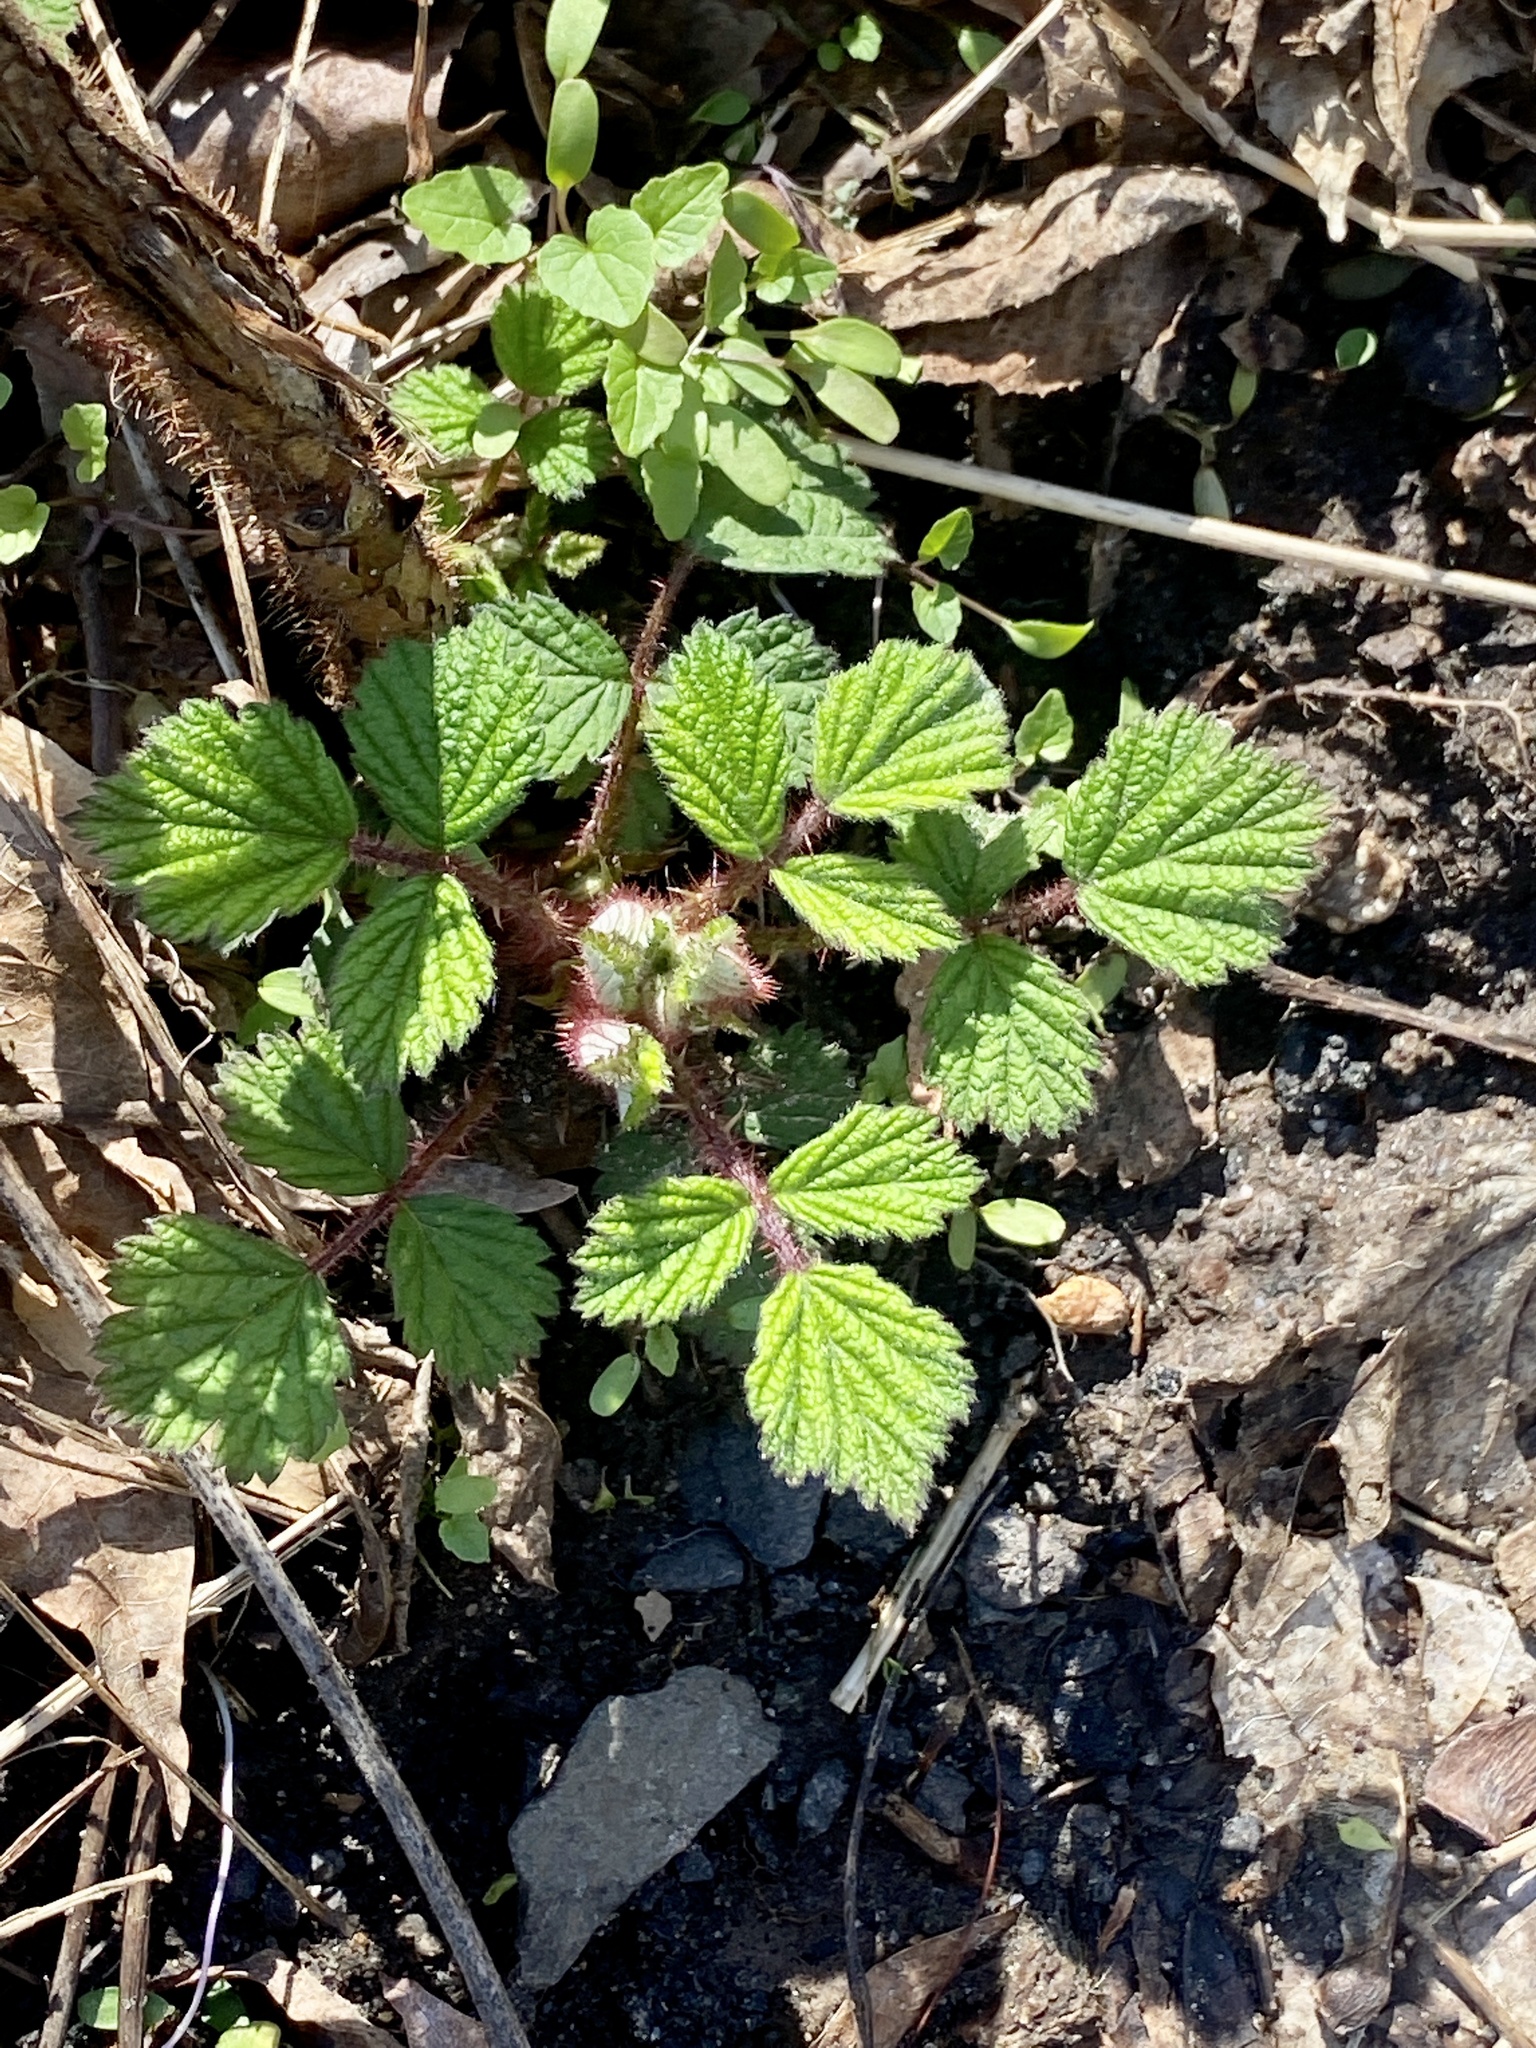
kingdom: Plantae
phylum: Tracheophyta
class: Magnoliopsida
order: Rosales
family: Rosaceae
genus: Rubus
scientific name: Rubus phoenicolasius
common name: Japanese wineberry
